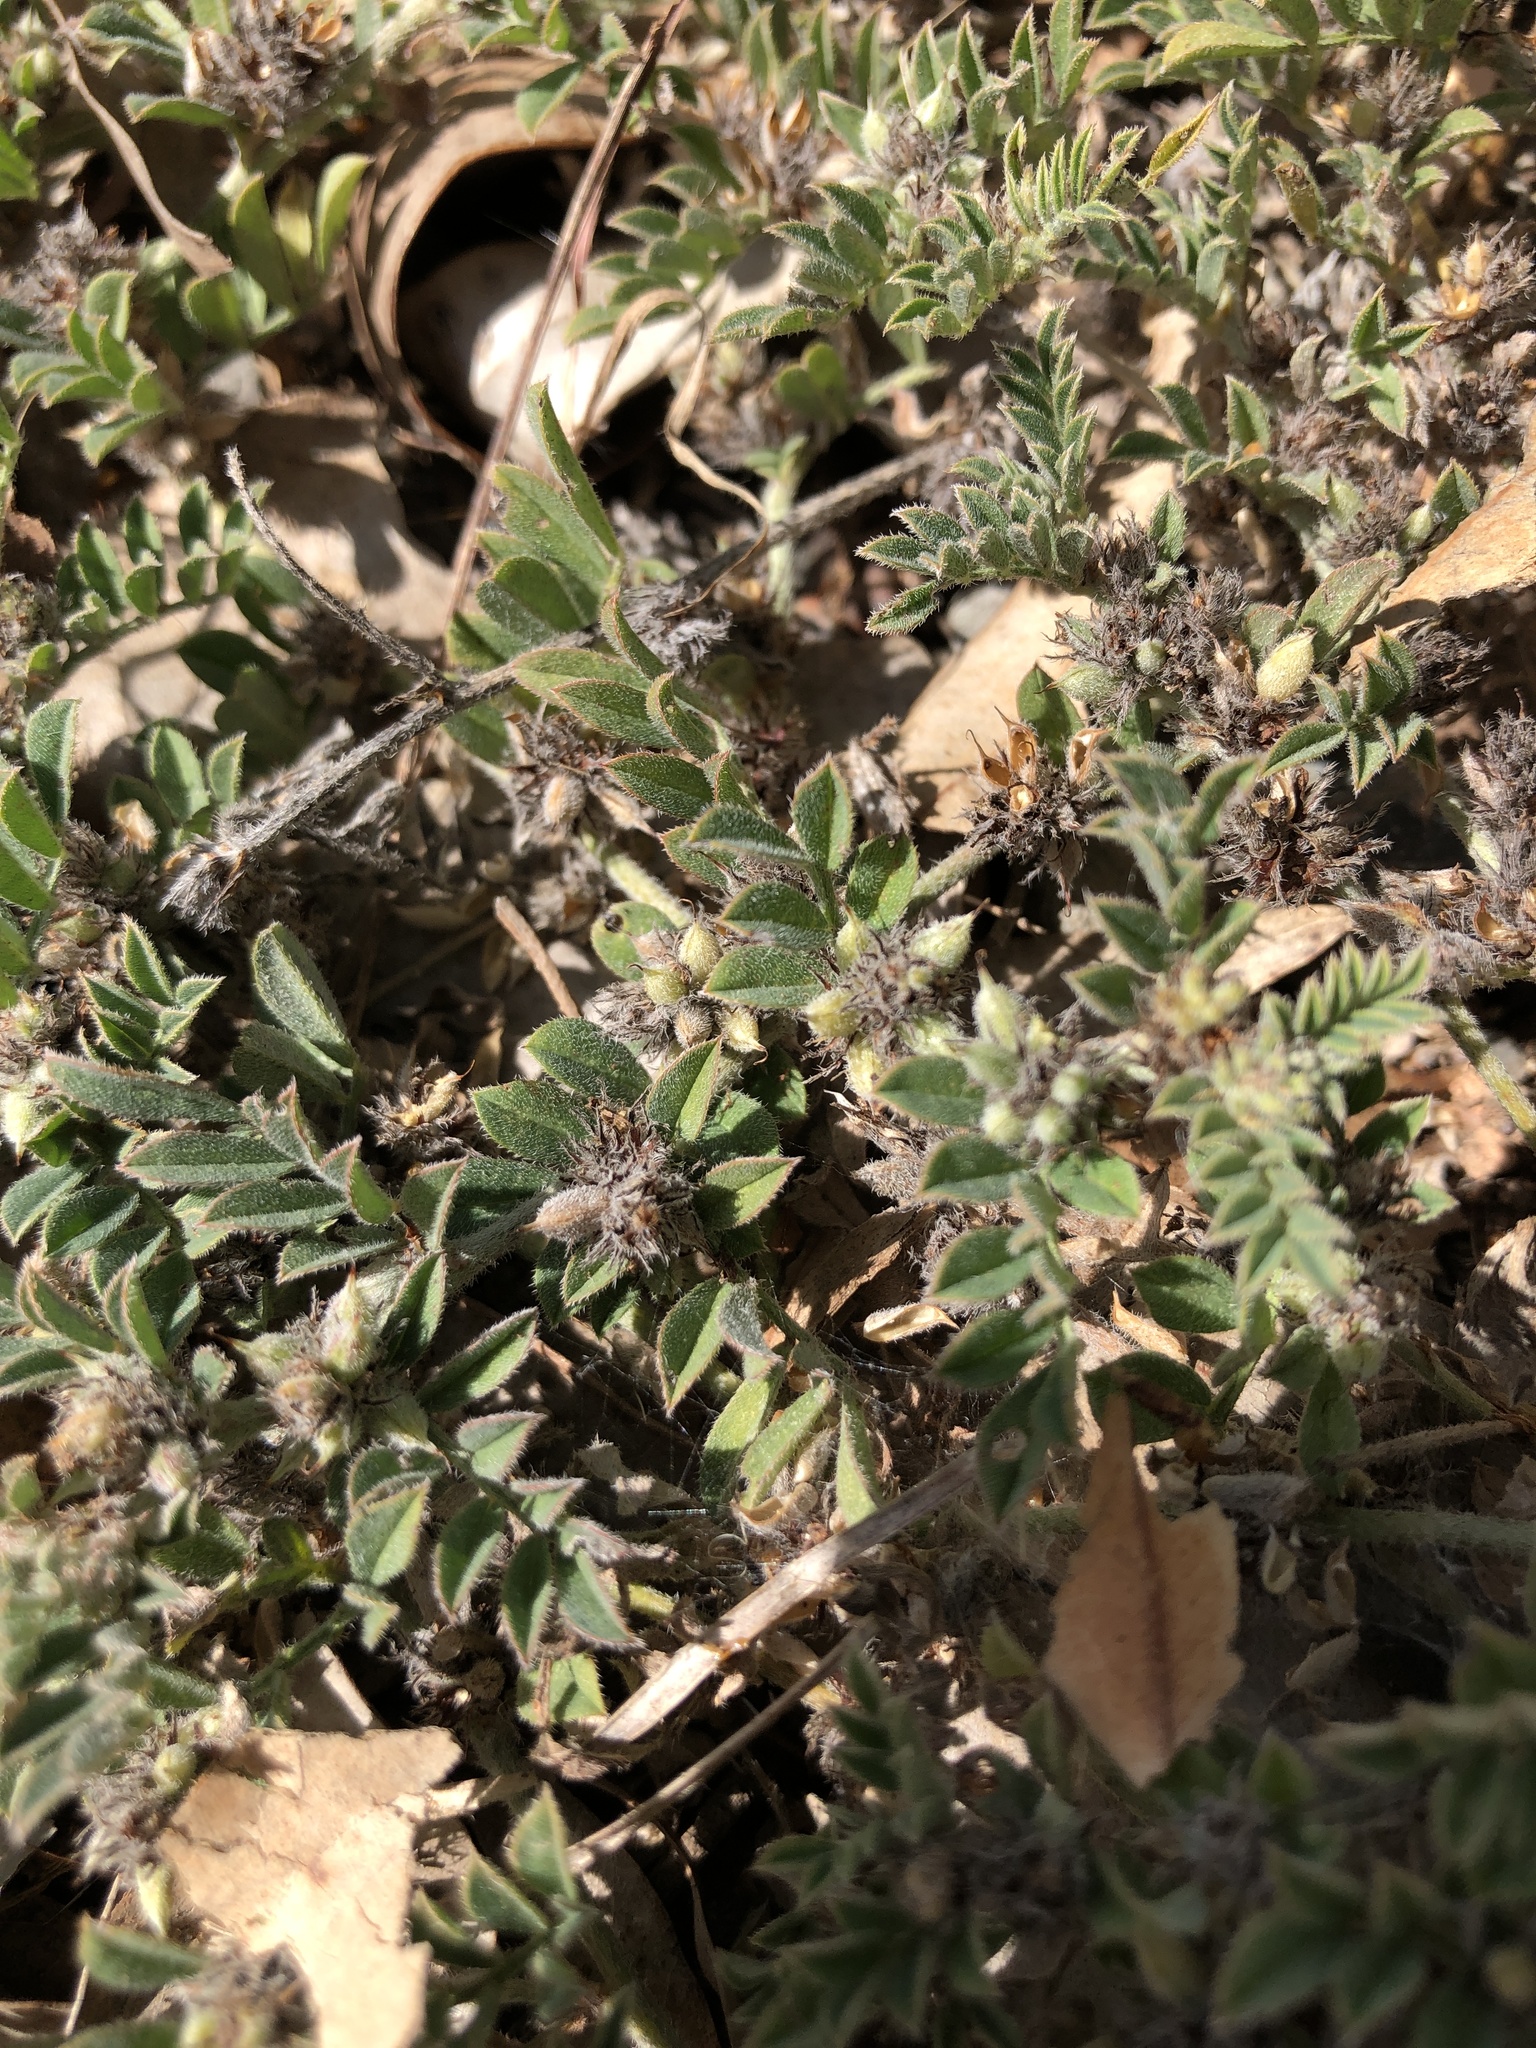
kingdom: Plantae
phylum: Tracheophyta
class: Magnoliopsida
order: Fabales
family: Fabaceae
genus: Indigofera
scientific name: Indigofera linnaei
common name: Nine-leaf indigo
